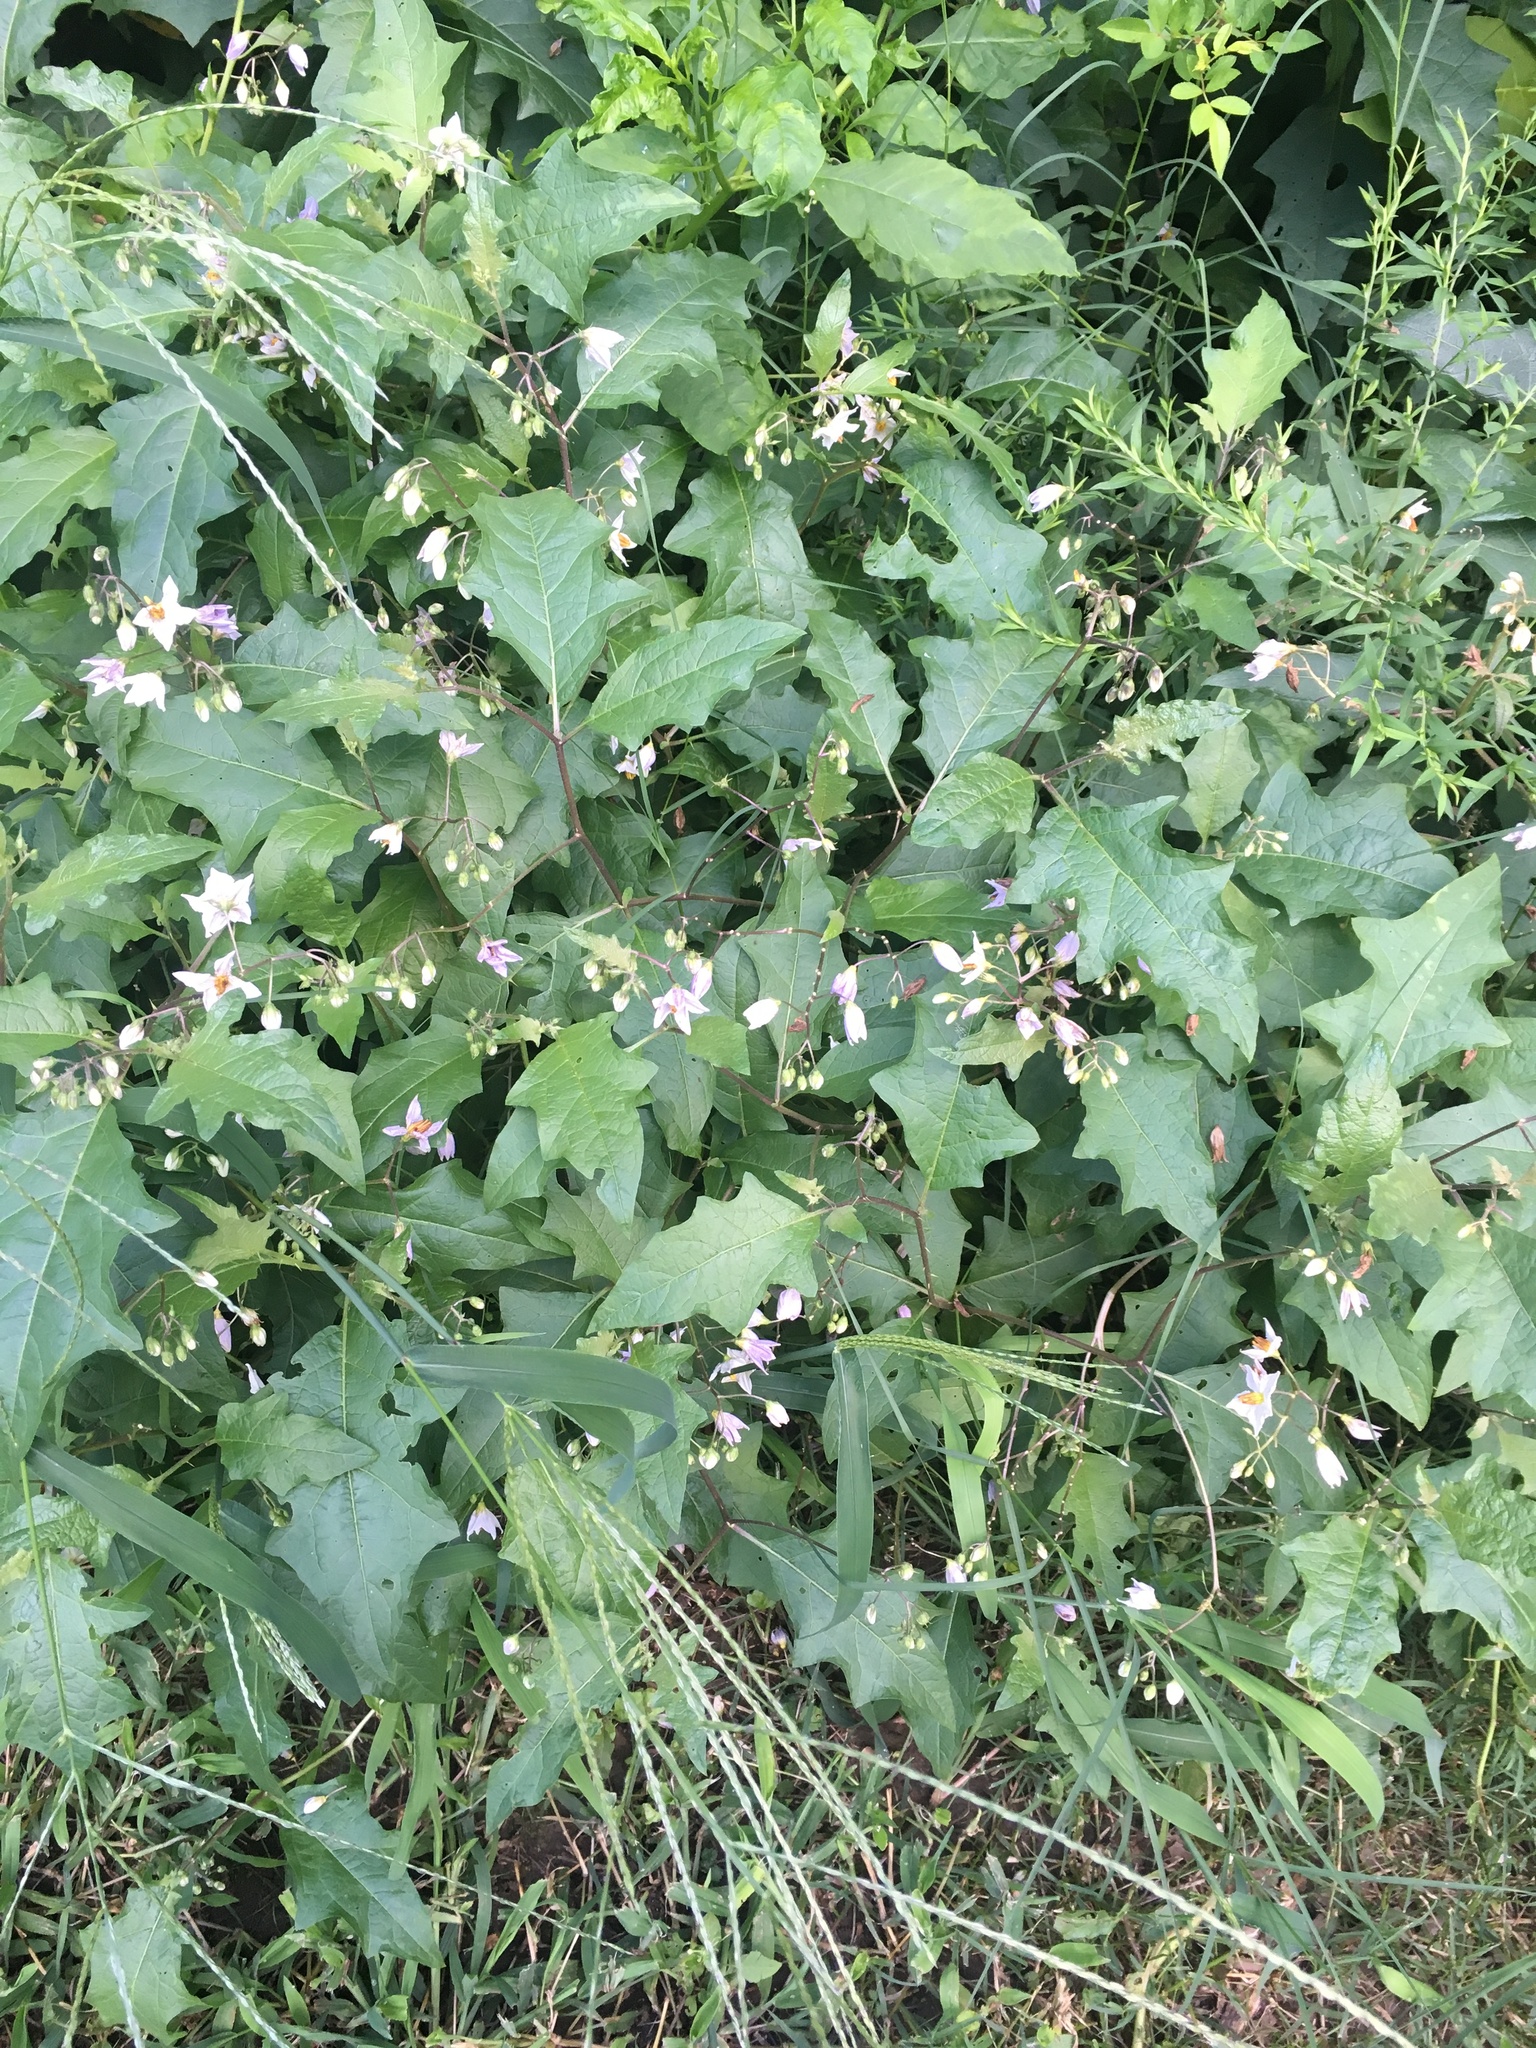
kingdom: Plantae
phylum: Tracheophyta
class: Magnoliopsida
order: Solanales
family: Solanaceae
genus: Solanum
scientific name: Solanum carolinense
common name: Horse-nettle
